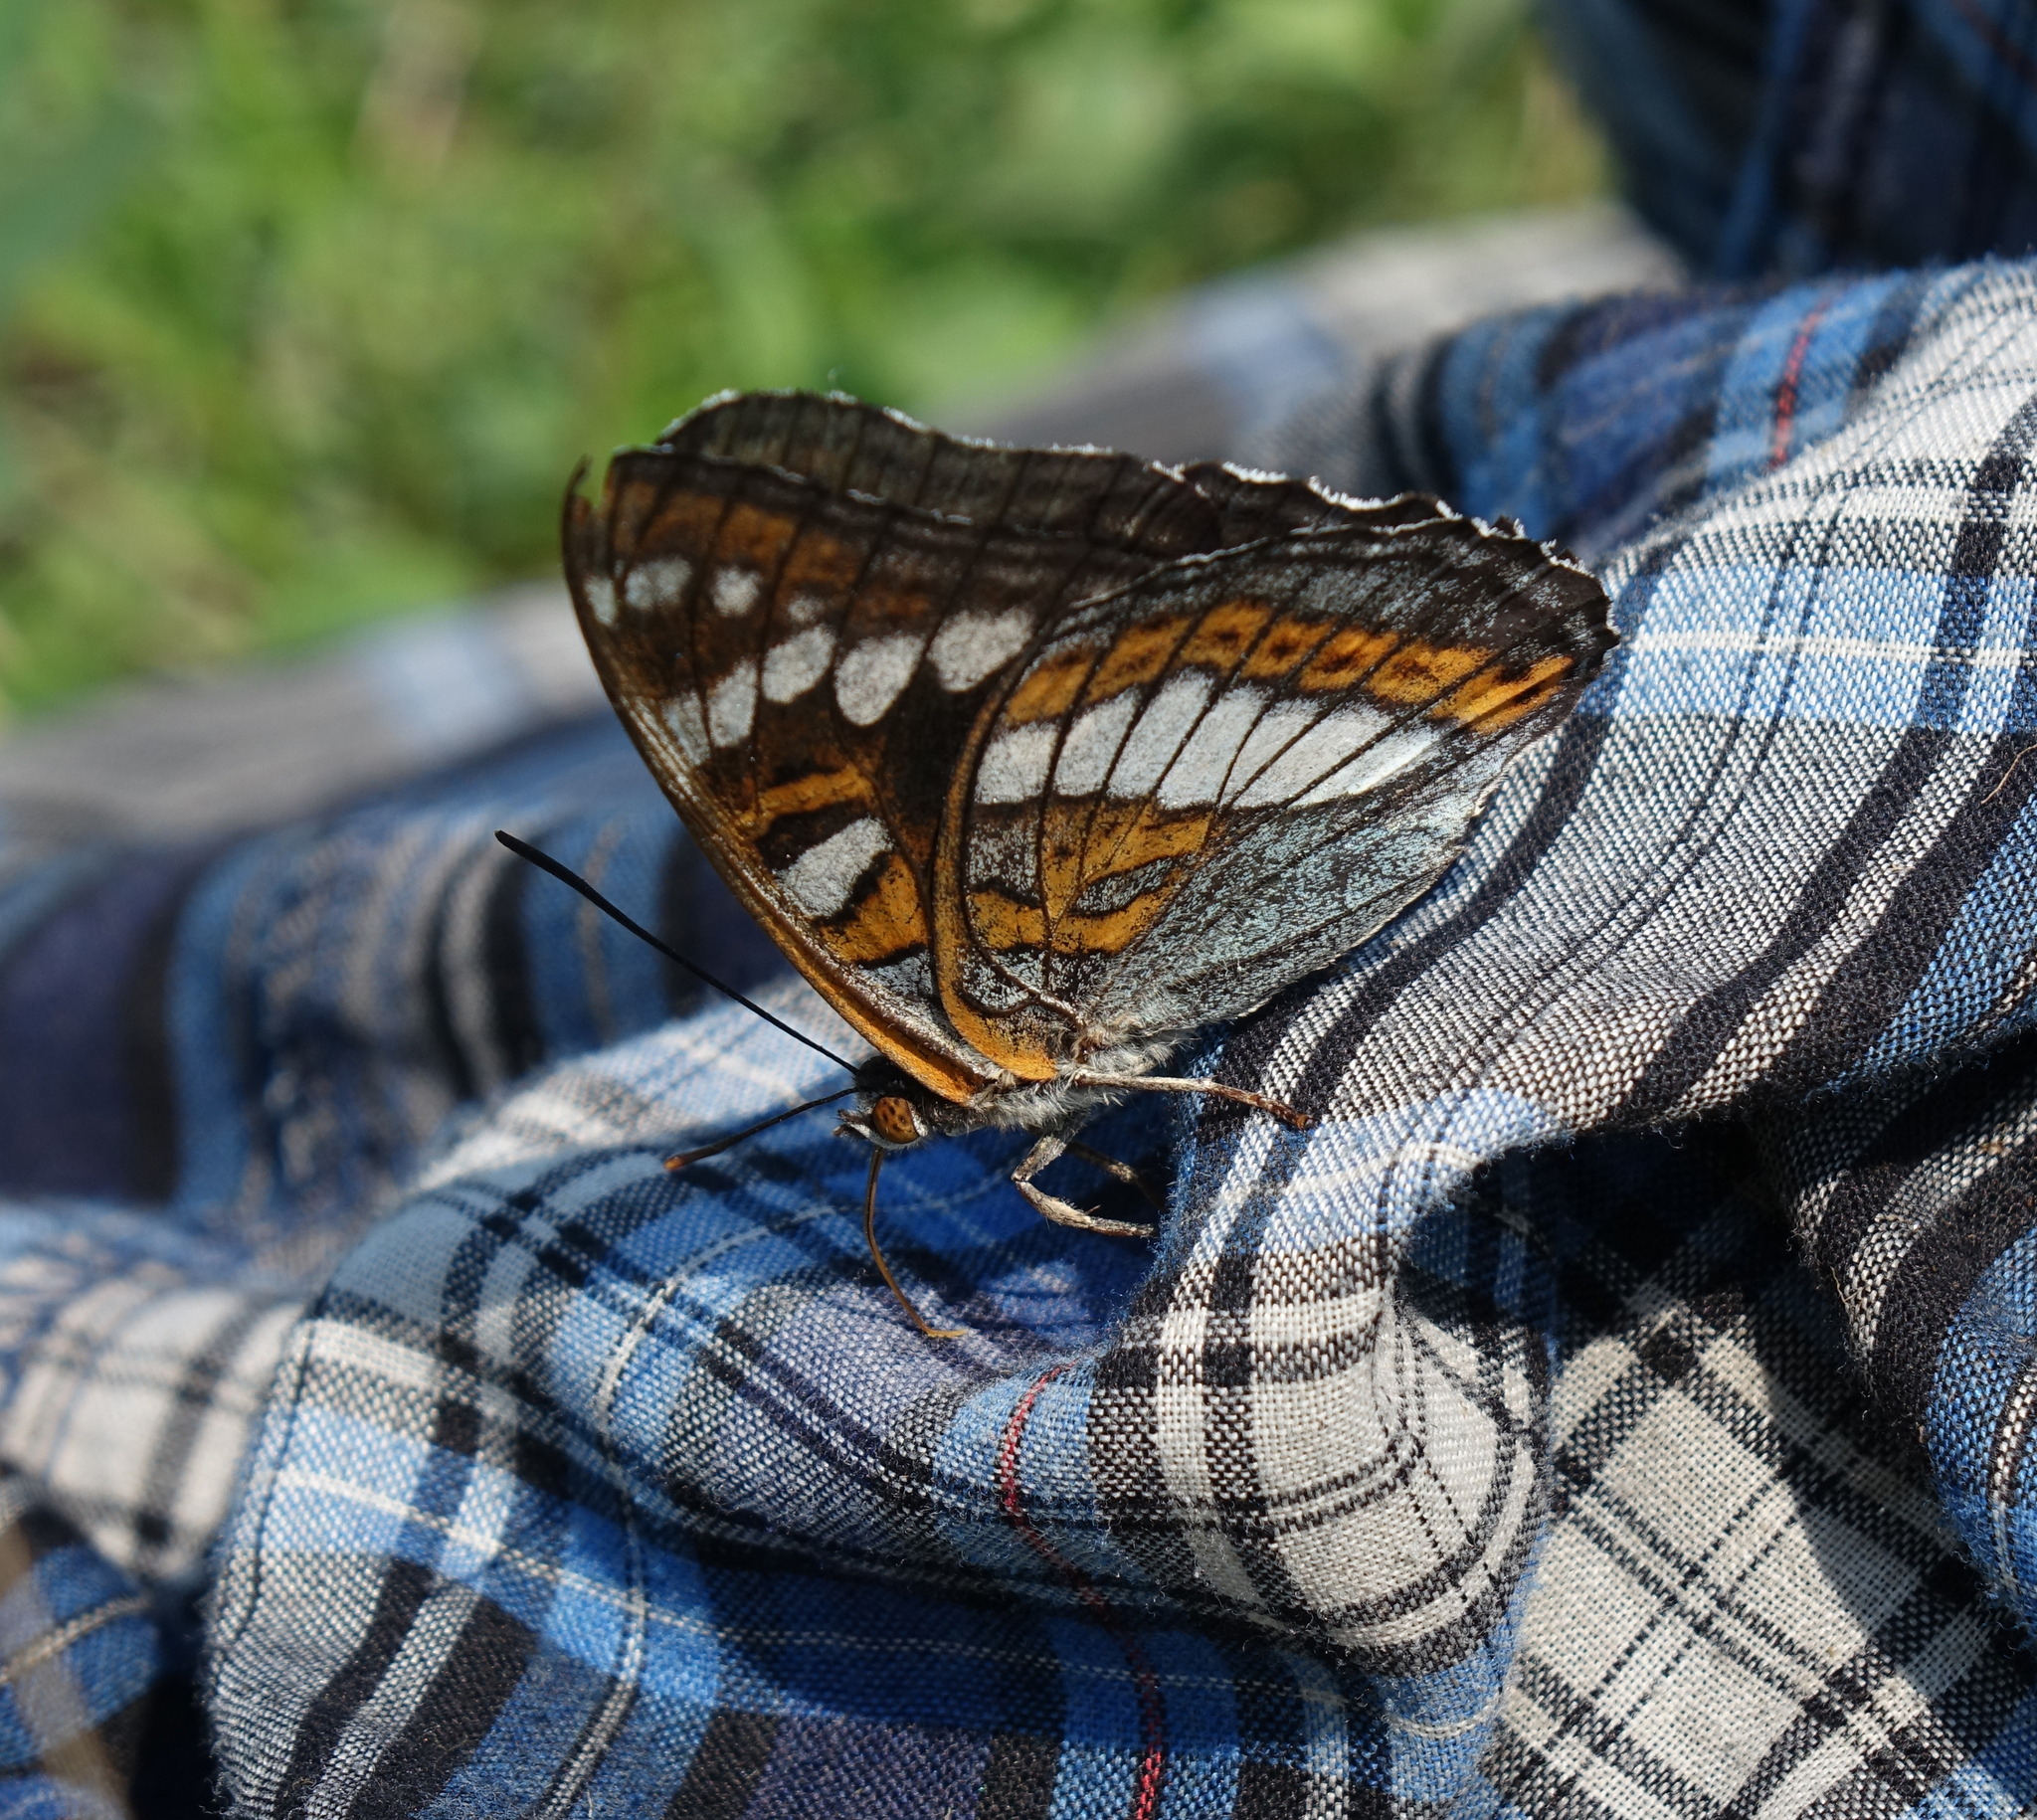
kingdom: Animalia
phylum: Arthropoda
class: Insecta
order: Lepidoptera
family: Nymphalidae
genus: Limenitis
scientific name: Limenitis populi
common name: Poplar admiral
